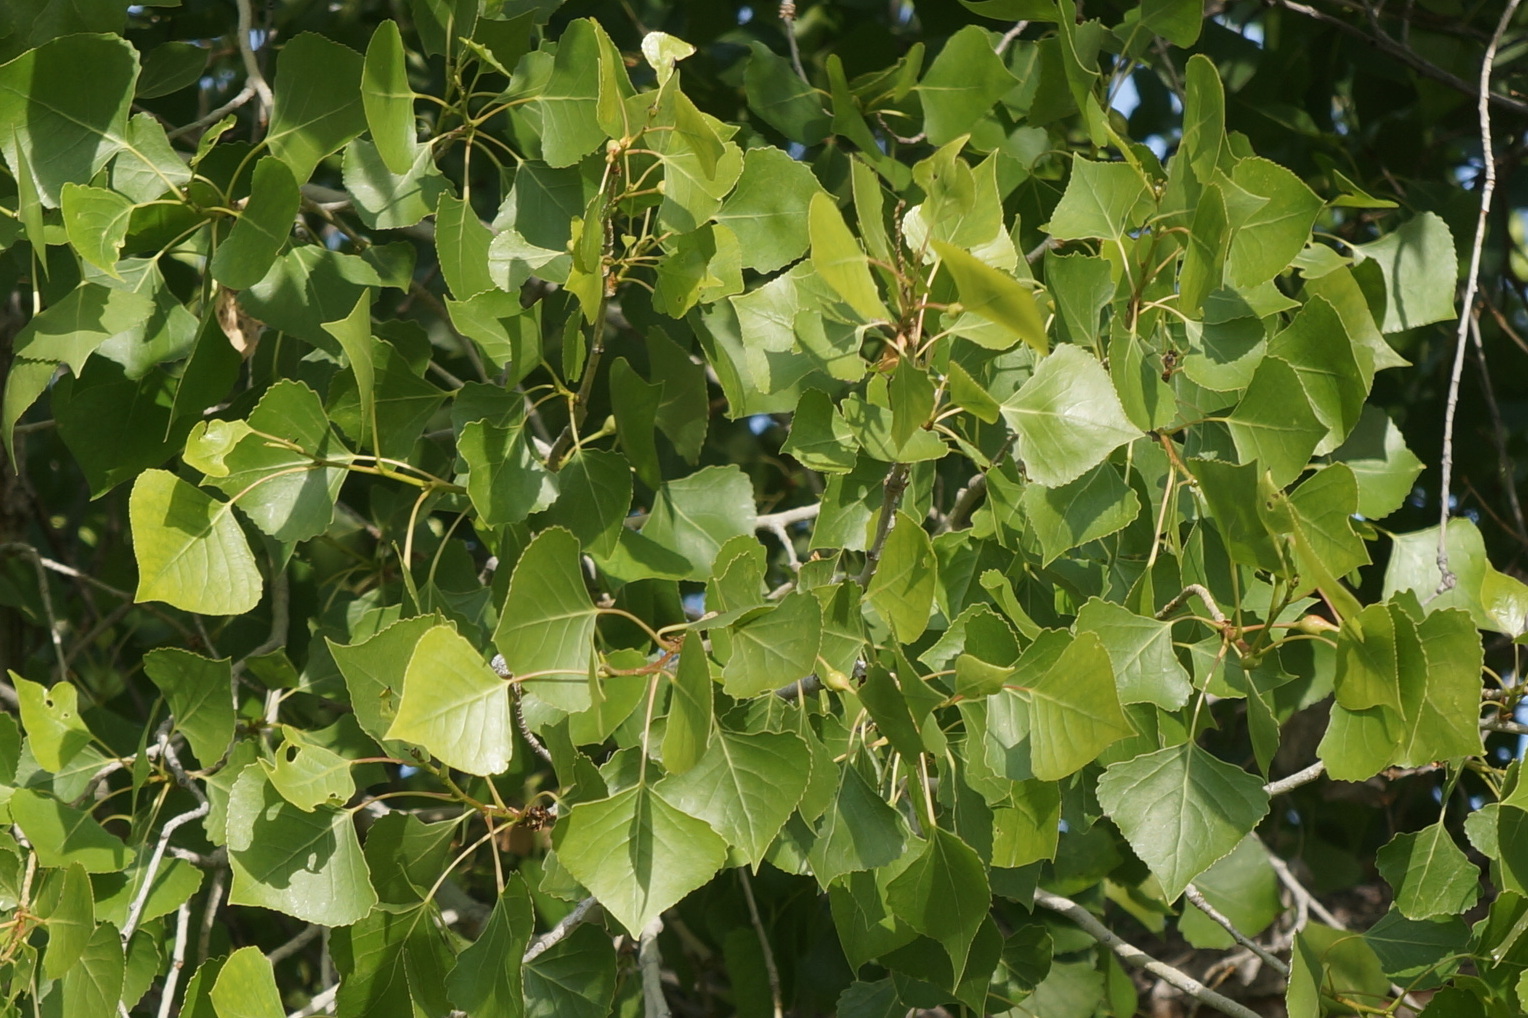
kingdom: Plantae
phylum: Tracheophyta
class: Magnoliopsida
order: Malpighiales
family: Salicaceae
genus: Populus
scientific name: Populus deltoides
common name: Eastern cottonwood
